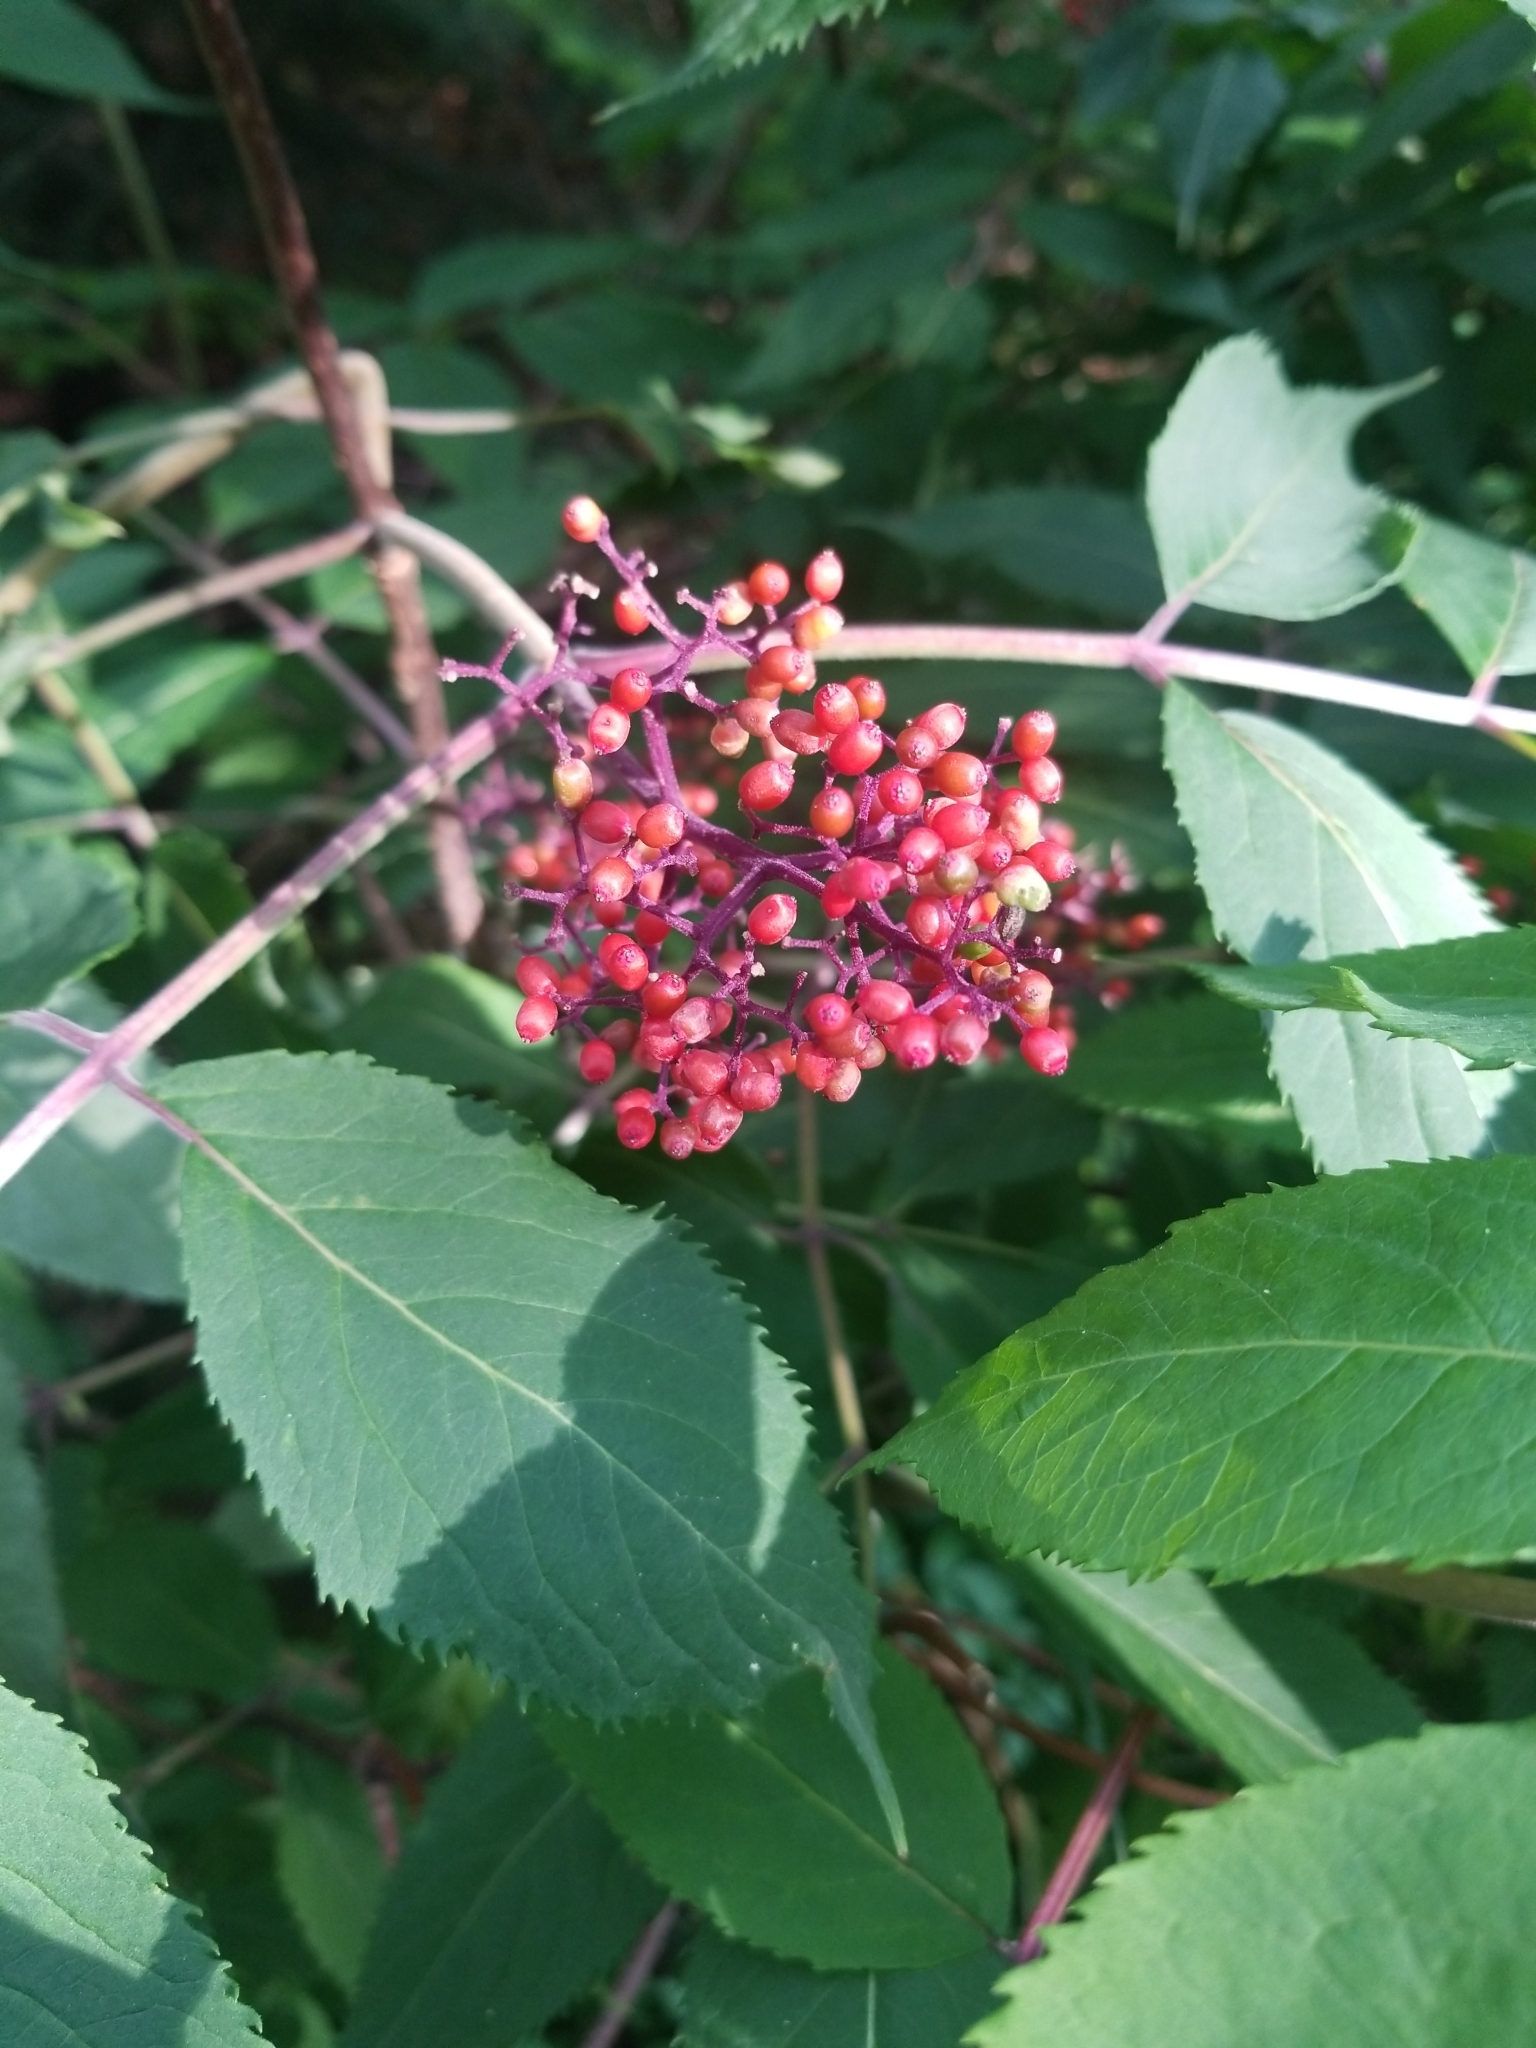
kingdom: Plantae
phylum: Tracheophyta
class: Magnoliopsida
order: Dipsacales
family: Viburnaceae
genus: Sambucus
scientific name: Sambucus racemosa
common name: Red-berried elder
